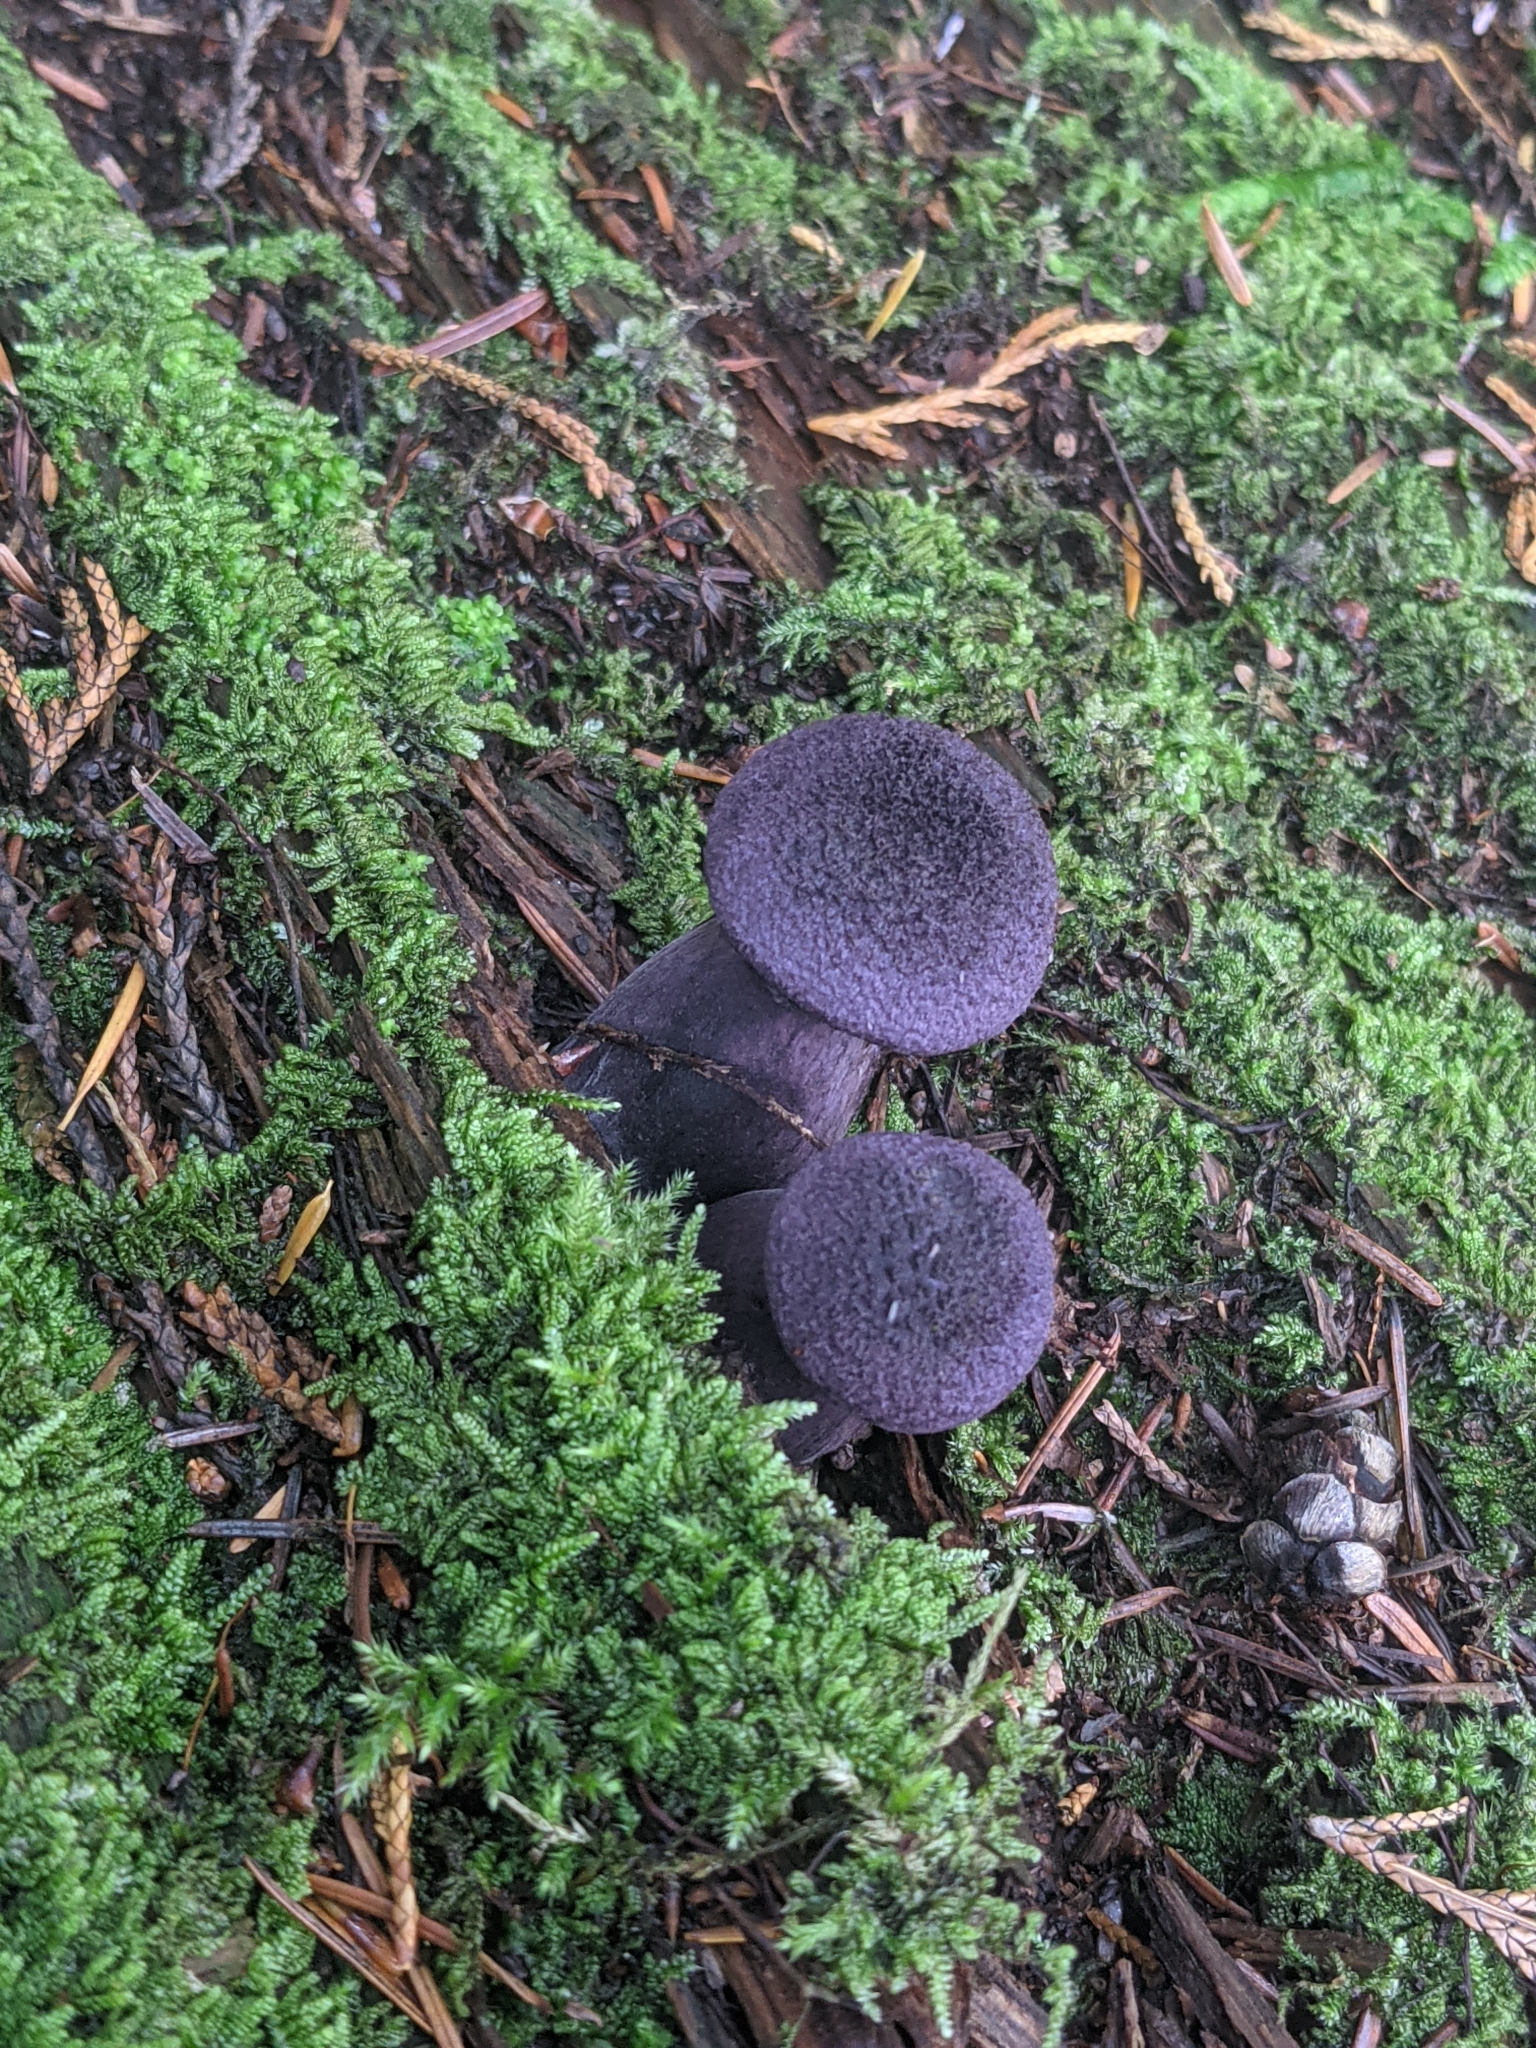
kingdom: Fungi
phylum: Basidiomycota
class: Agaricomycetes
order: Agaricales
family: Cortinariaceae
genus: Cortinarius
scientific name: Cortinarius violaceus
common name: Violet webcap
